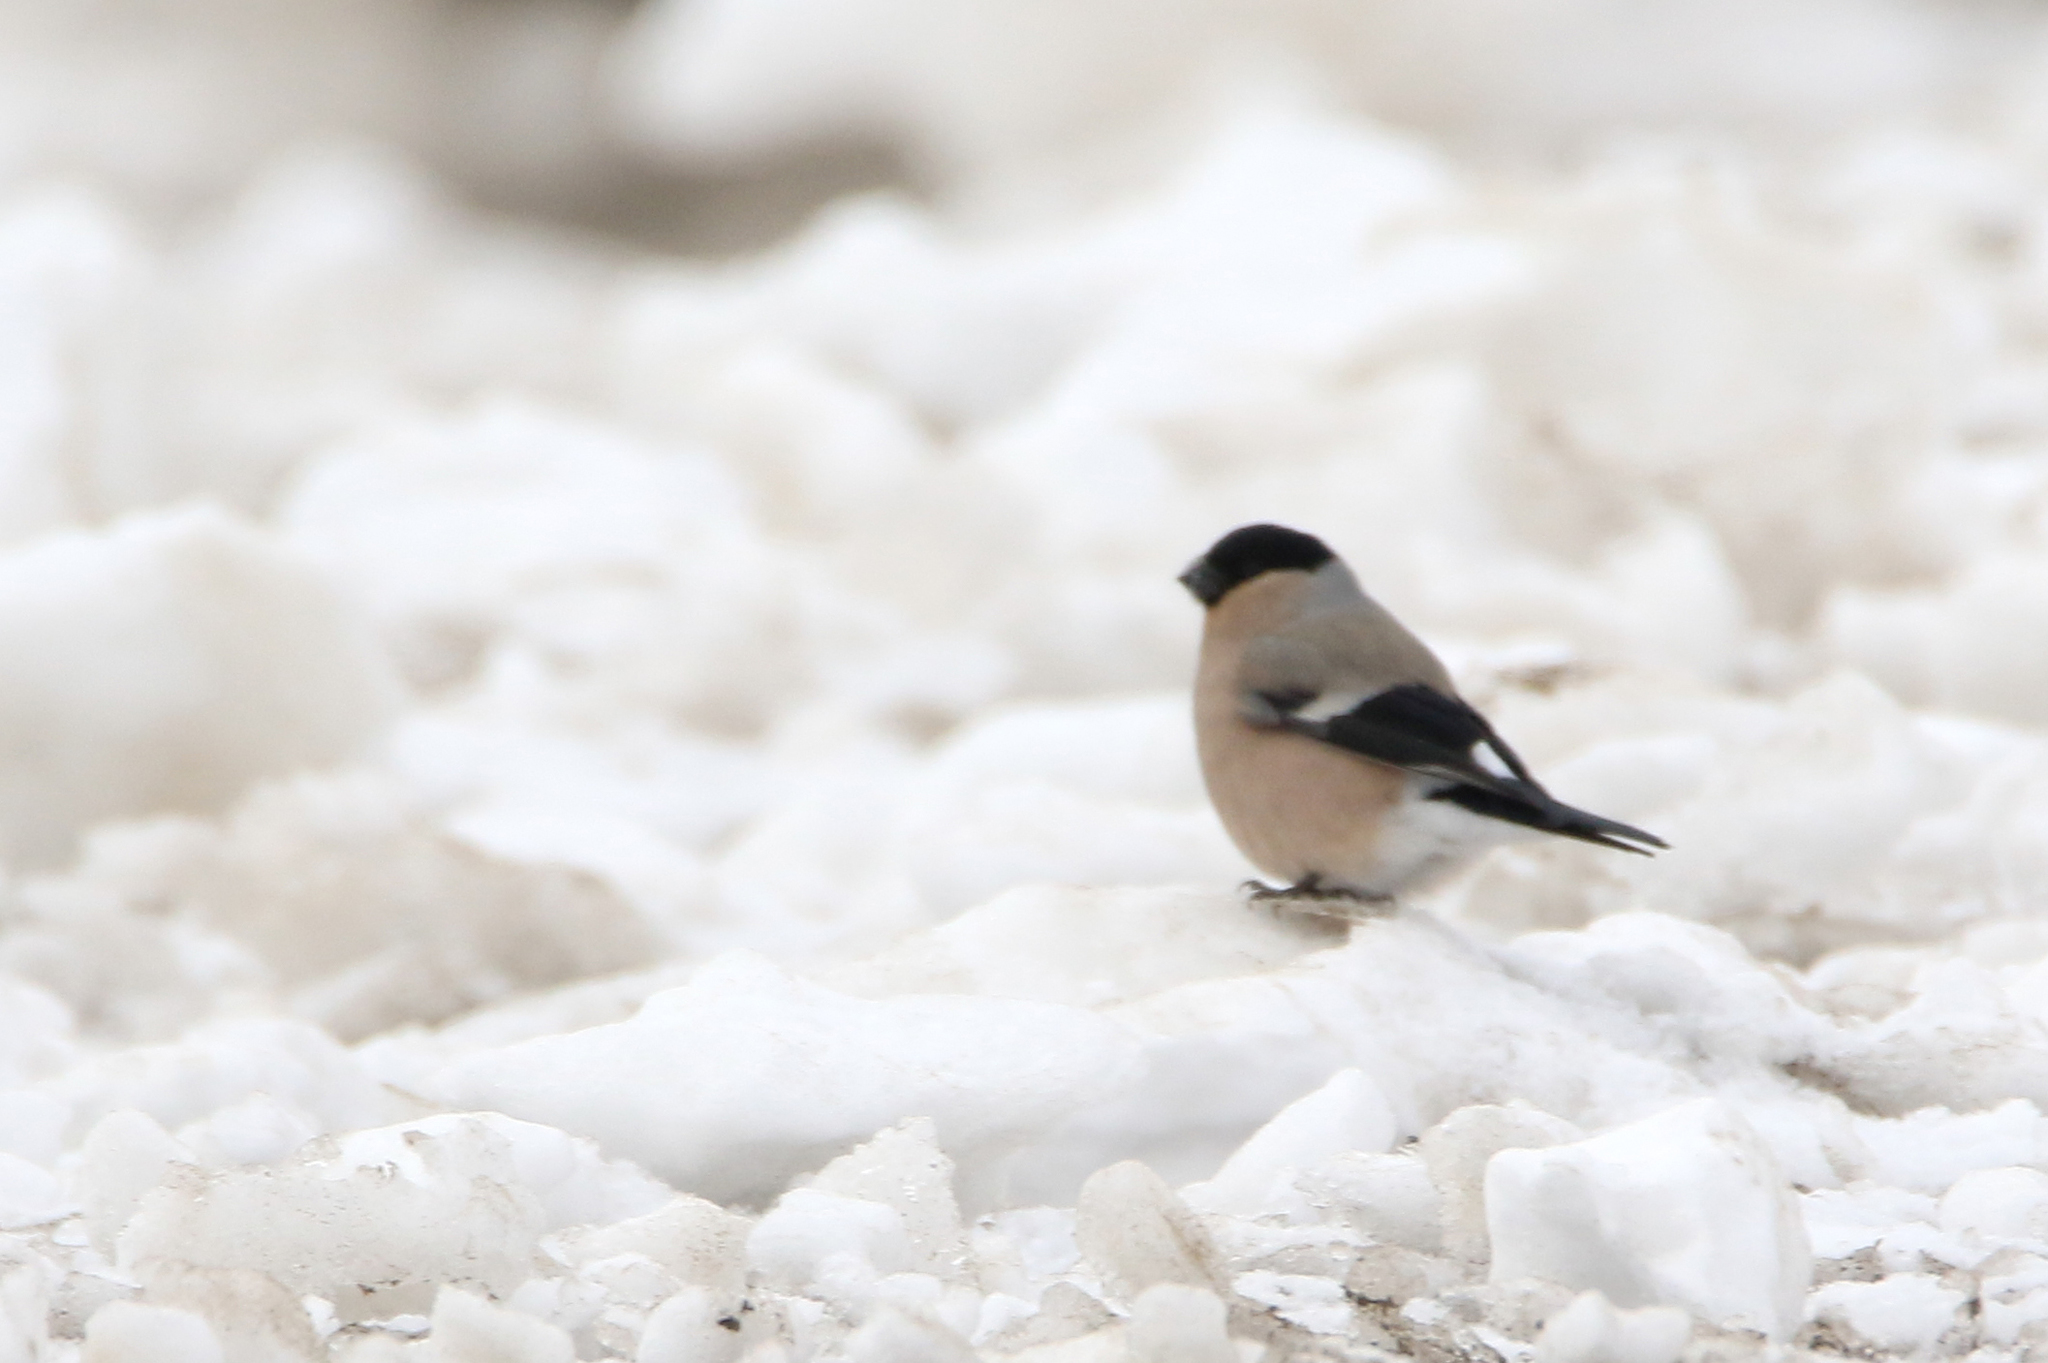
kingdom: Animalia
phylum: Chordata
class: Aves
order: Passeriformes
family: Fringillidae
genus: Pyrrhula
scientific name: Pyrrhula pyrrhula
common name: Eurasian bullfinch
